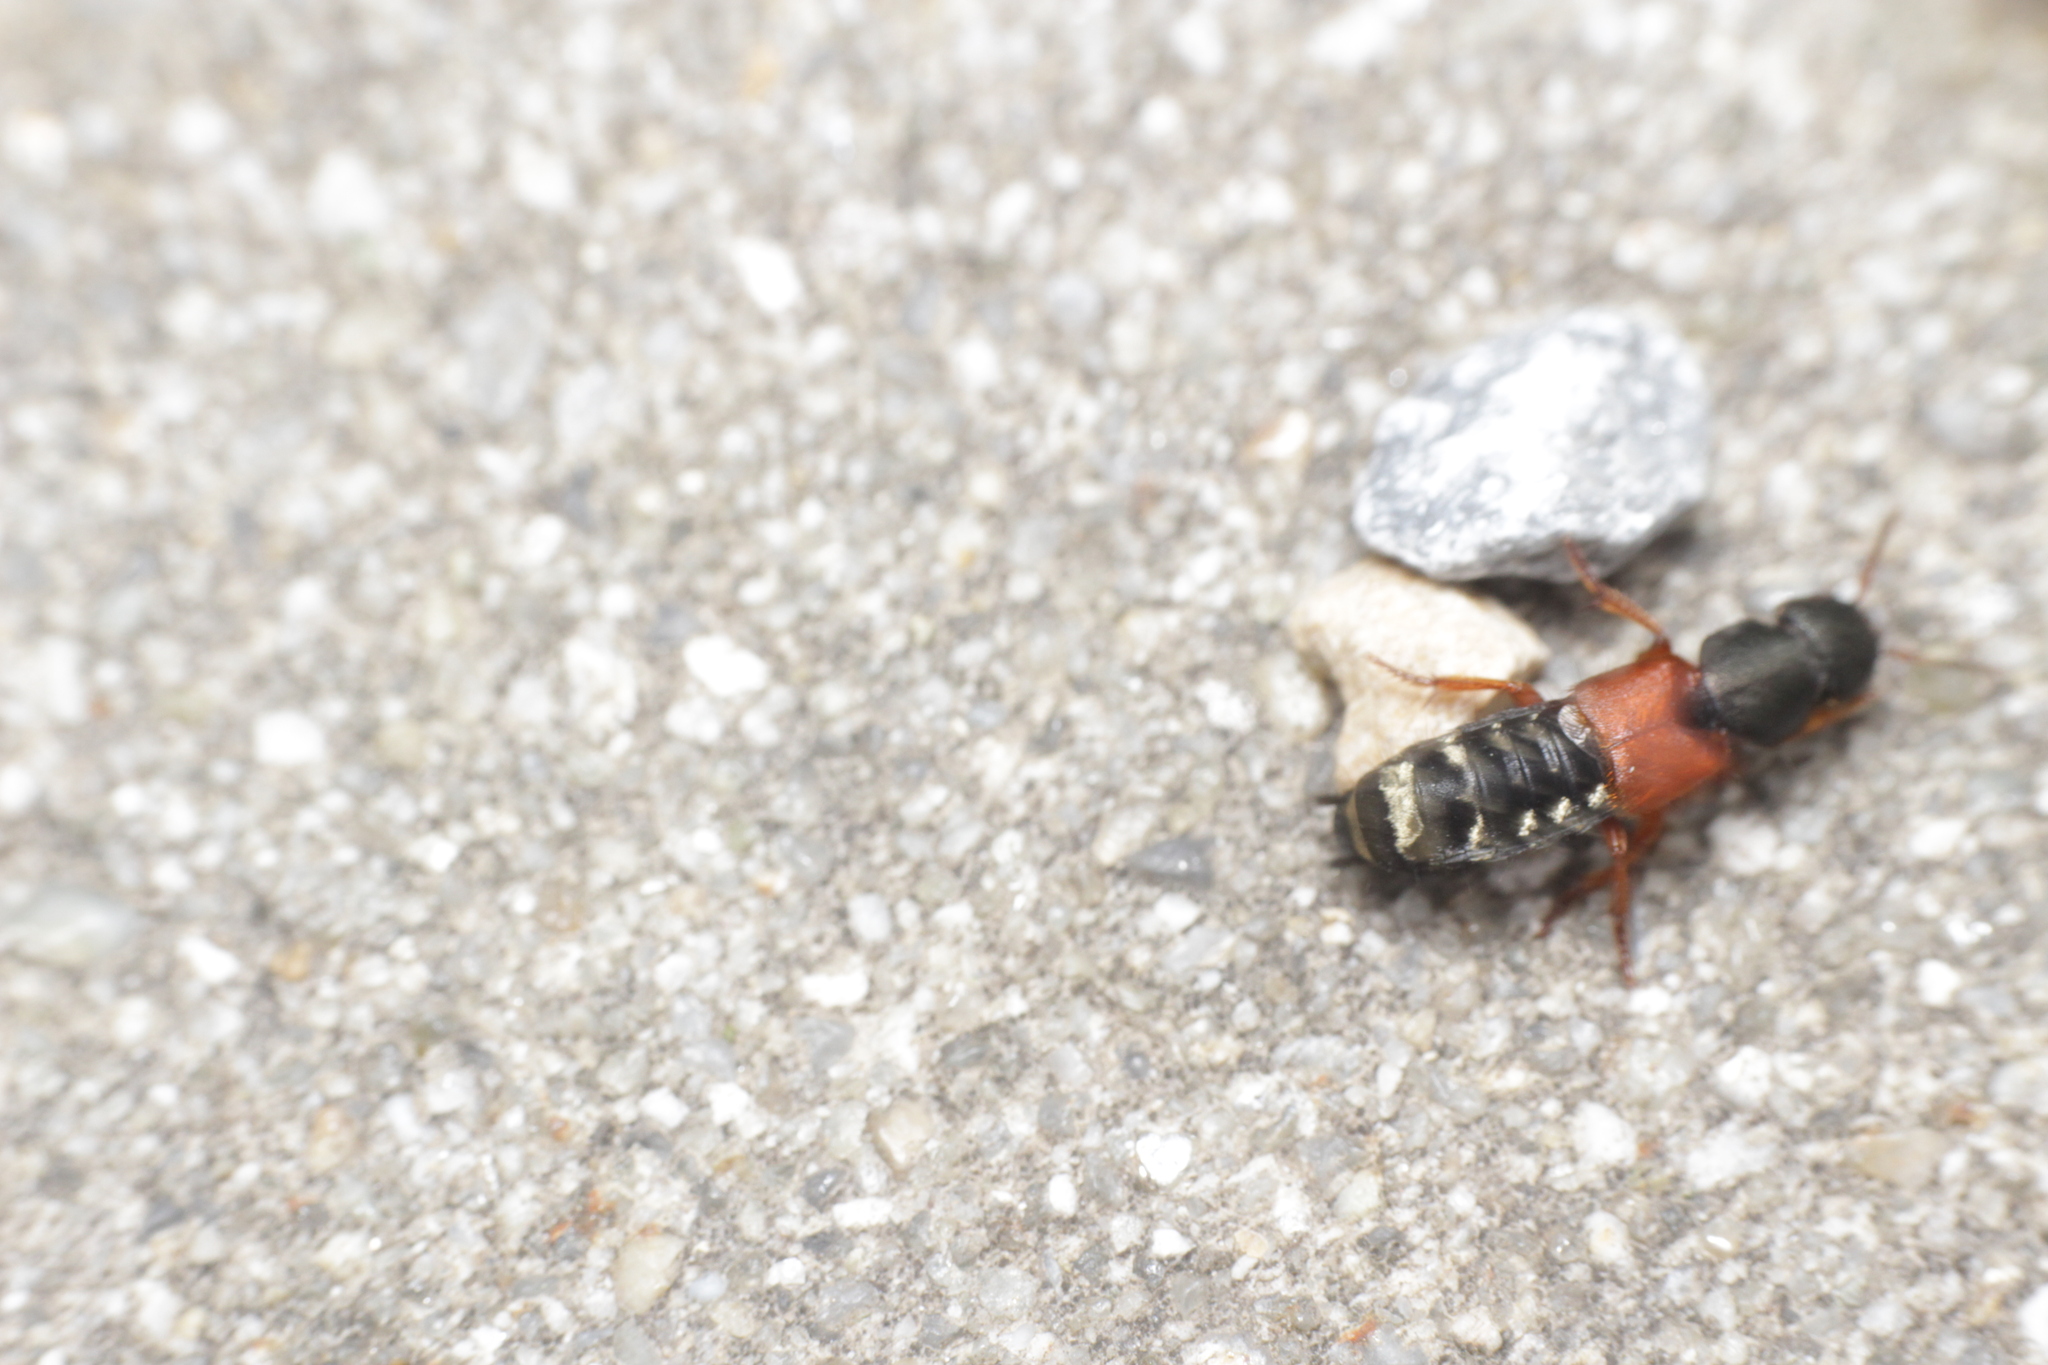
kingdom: Animalia
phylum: Arthropoda
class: Insecta
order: Coleoptera
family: Staphylinidae
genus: Platydracus
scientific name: Platydracus stercorarius
